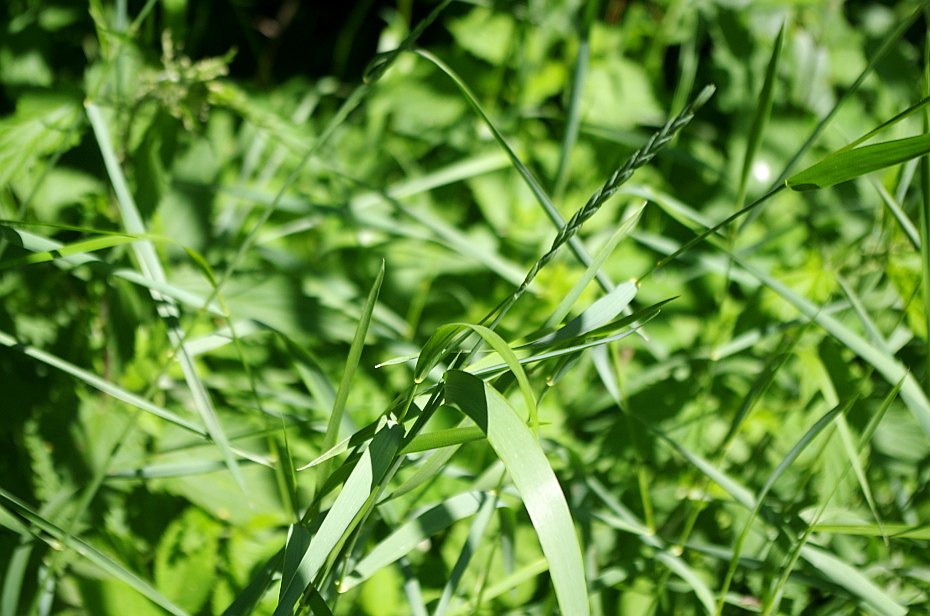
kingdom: Plantae
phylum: Tracheophyta
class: Liliopsida
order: Poales
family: Poaceae
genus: Elymus
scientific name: Elymus repens
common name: Quackgrass
